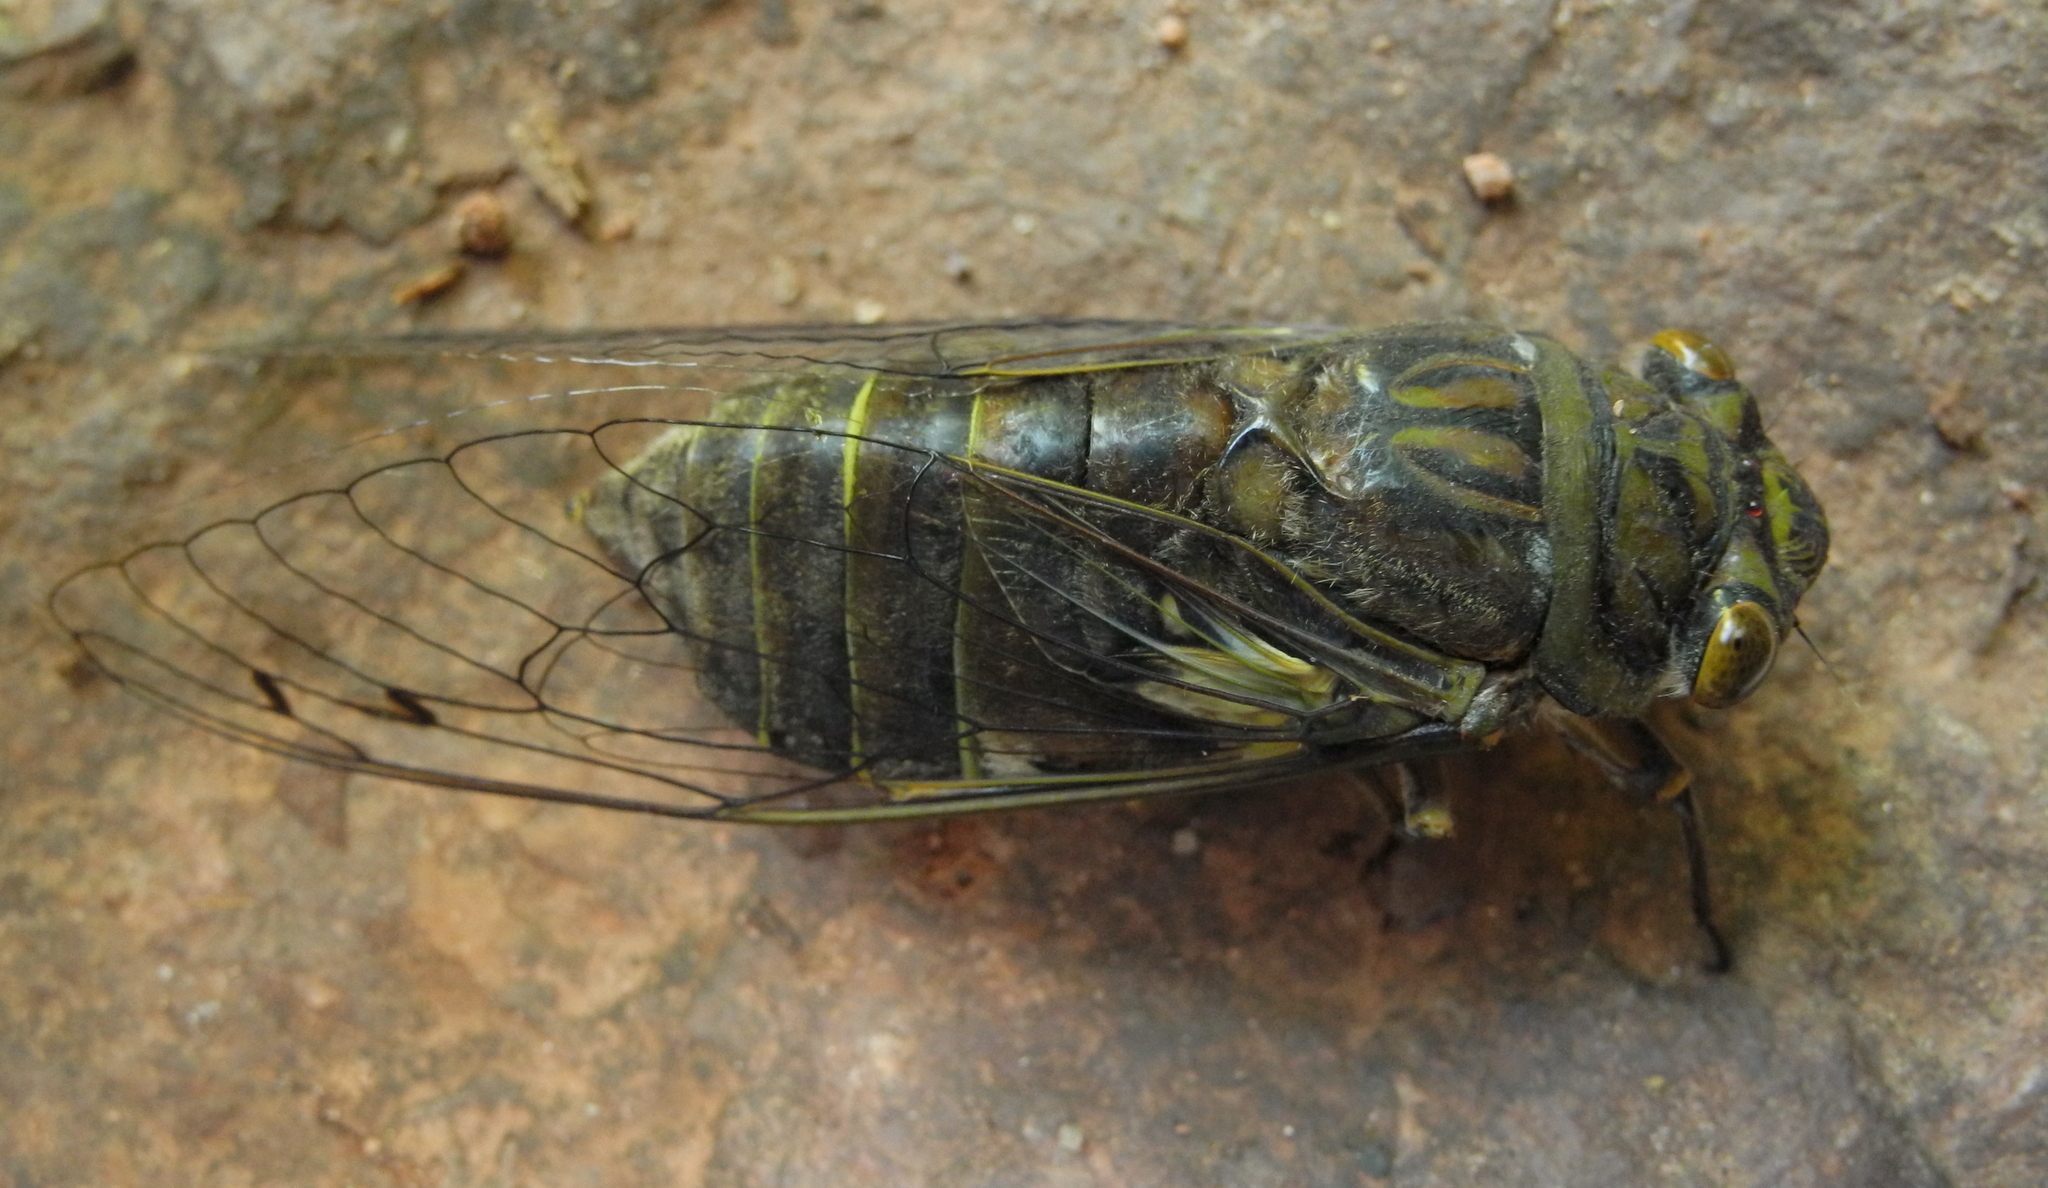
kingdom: Animalia
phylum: Arthropoda
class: Insecta
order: Hemiptera
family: Cicadidae
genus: Quesada
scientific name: Quesada gigas
